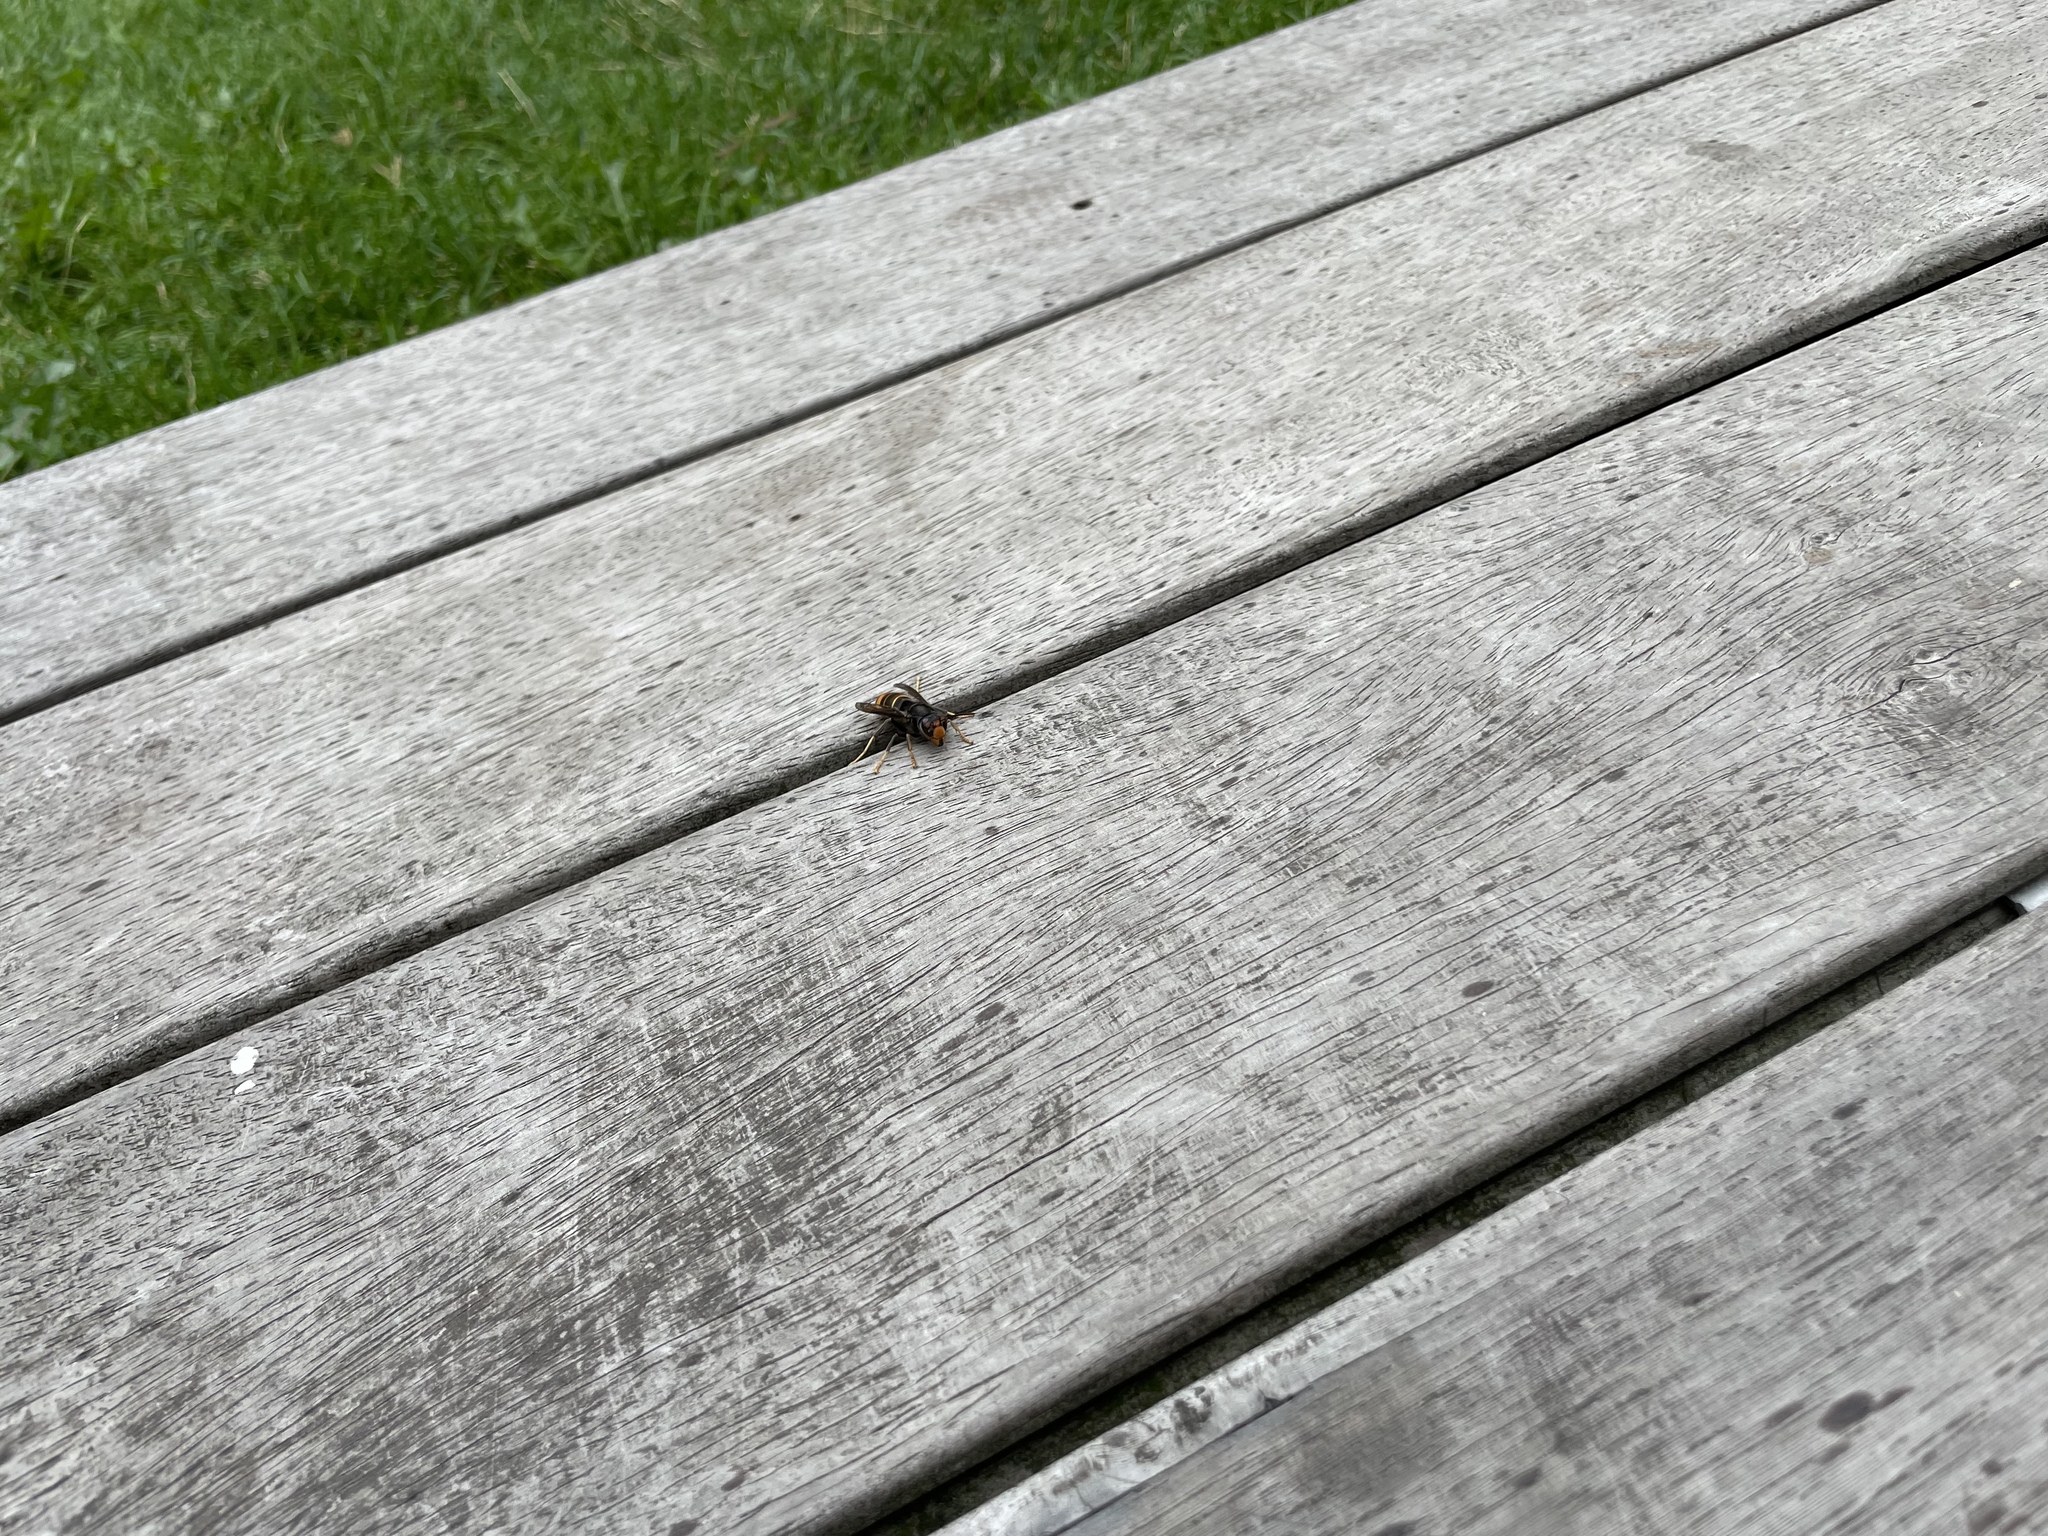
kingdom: Animalia
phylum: Arthropoda
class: Insecta
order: Hymenoptera
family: Vespidae
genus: Vespa
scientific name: Vespa velutina
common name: Asian hornet
